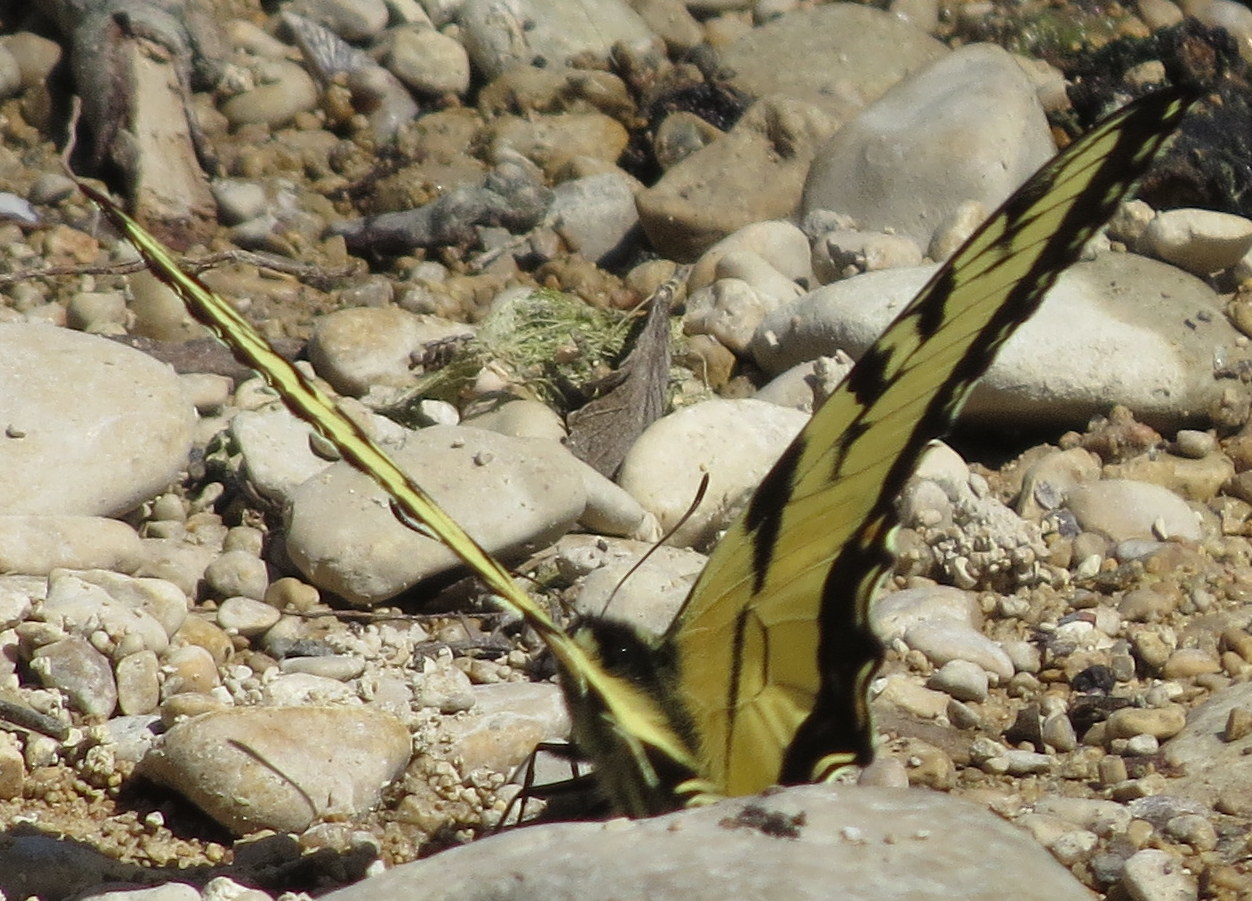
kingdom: Animalia
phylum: Arthropoda
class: Insecta
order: Lepidoptera
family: Papilionidae
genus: Papilio
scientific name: Papilio glaucus
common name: Tiger swallowtail
